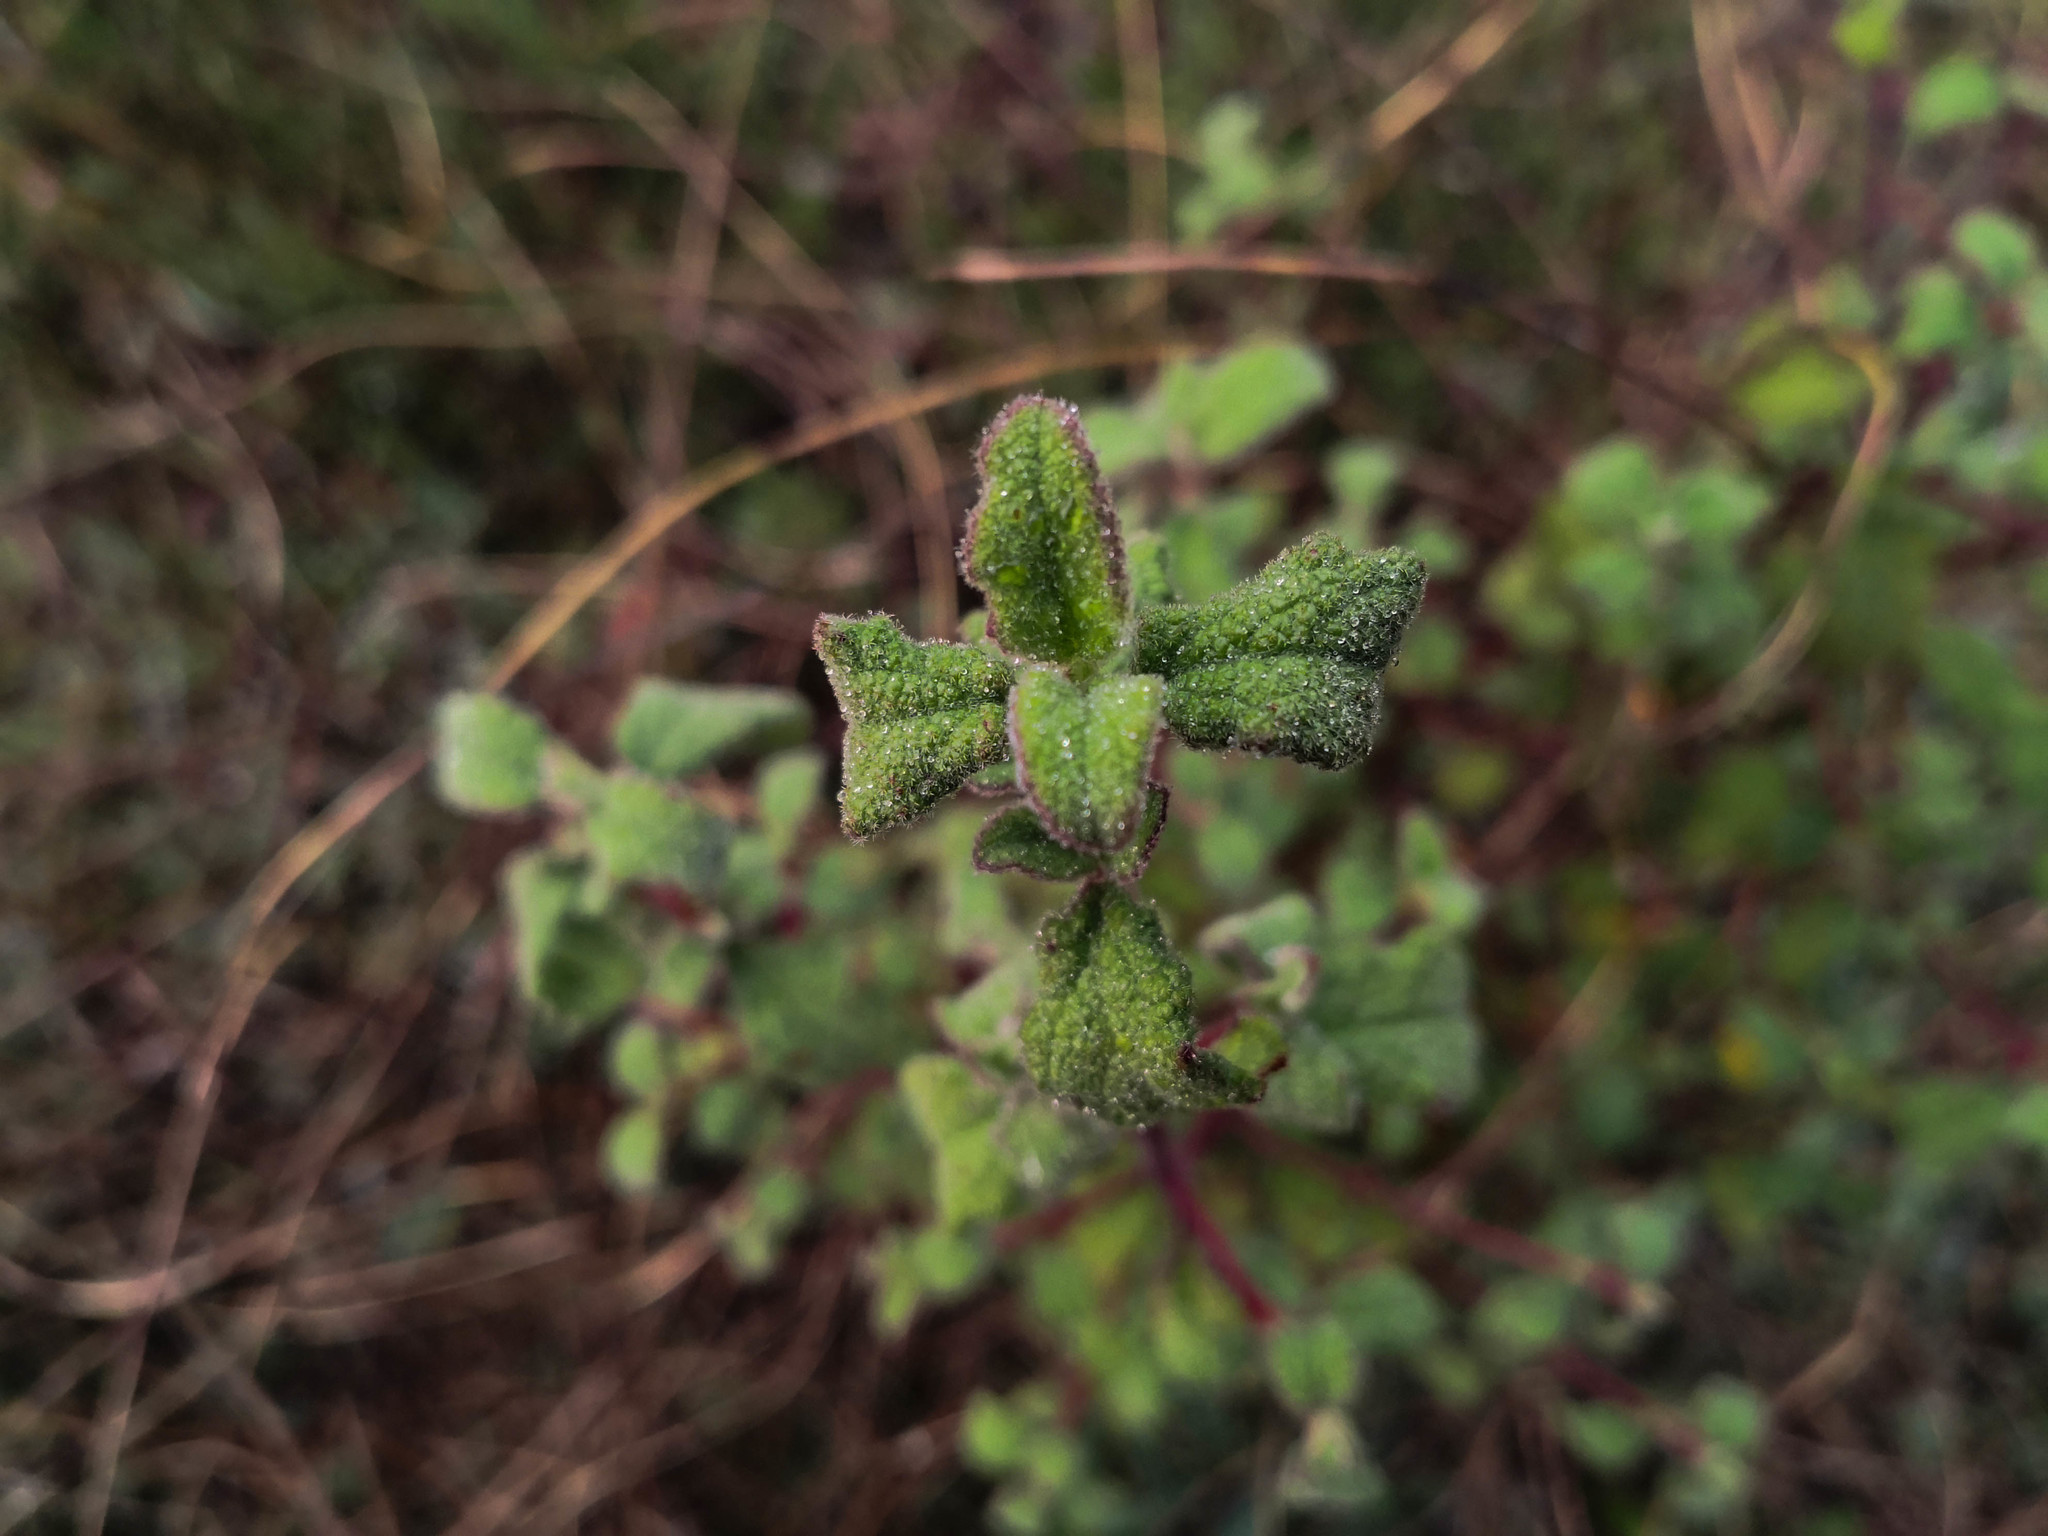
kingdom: Plantae
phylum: Tracheophyta
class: Magnoliopsida
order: Malvales
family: Cistaceae
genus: Cistus
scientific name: Cistus salviifolius
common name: Salvia cistus
